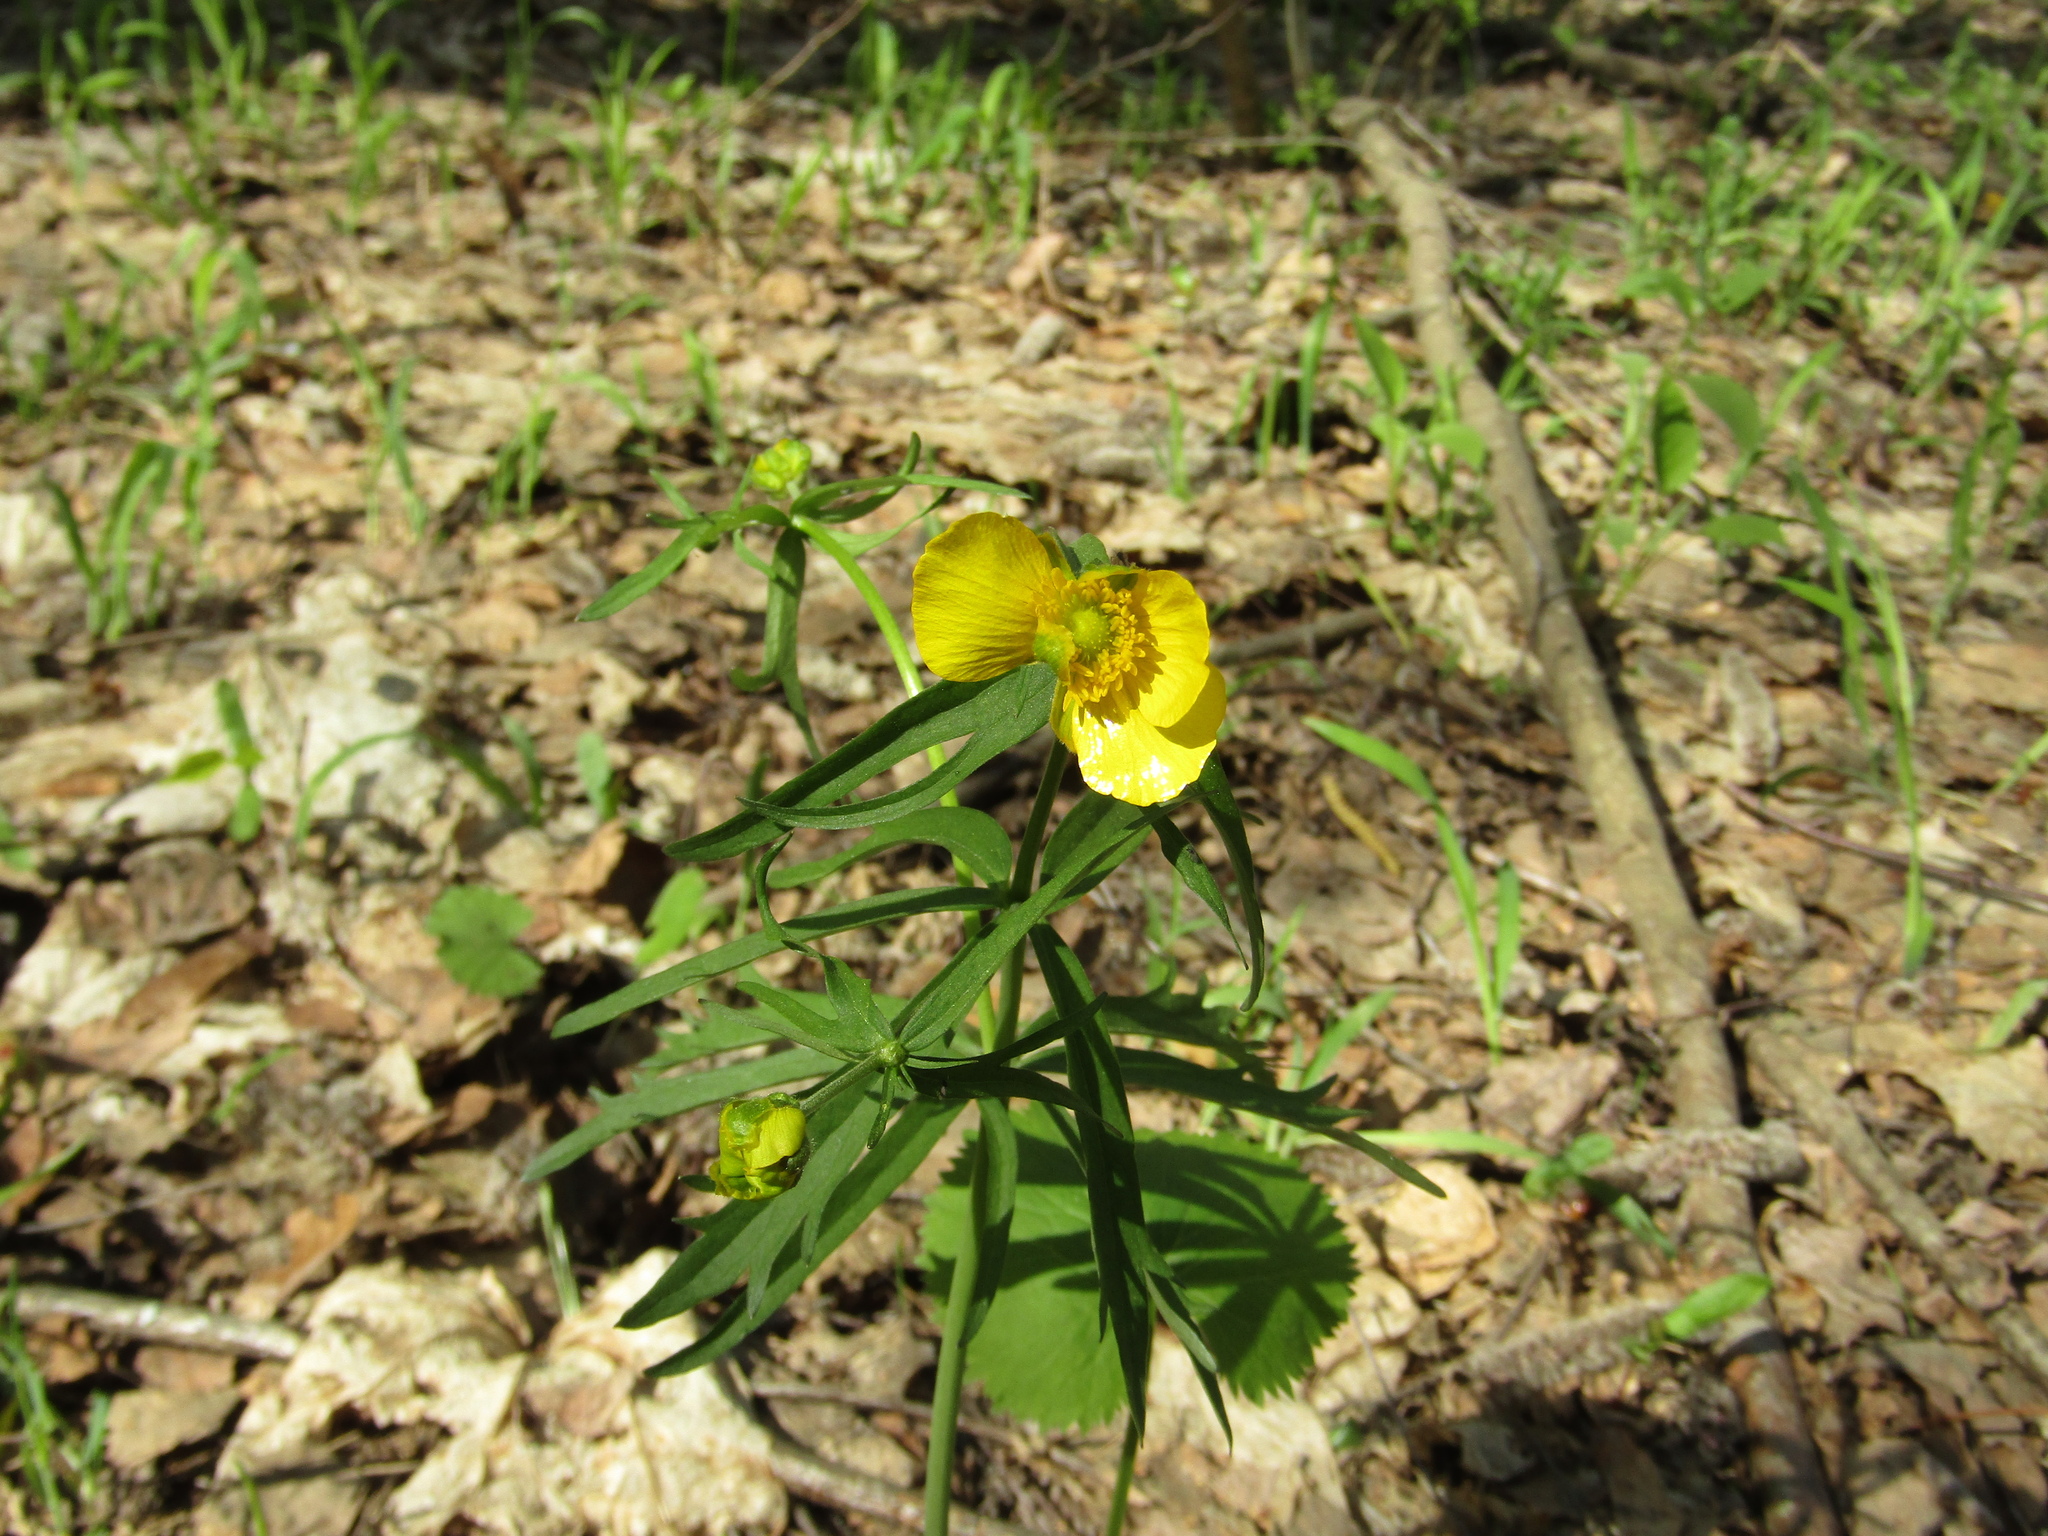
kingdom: Plantae
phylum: Tracheophyta
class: Magnoliopsida
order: Ranunculales
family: Ranunculaceae
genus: Ranunculus
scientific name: Ranunculus cassubicus
